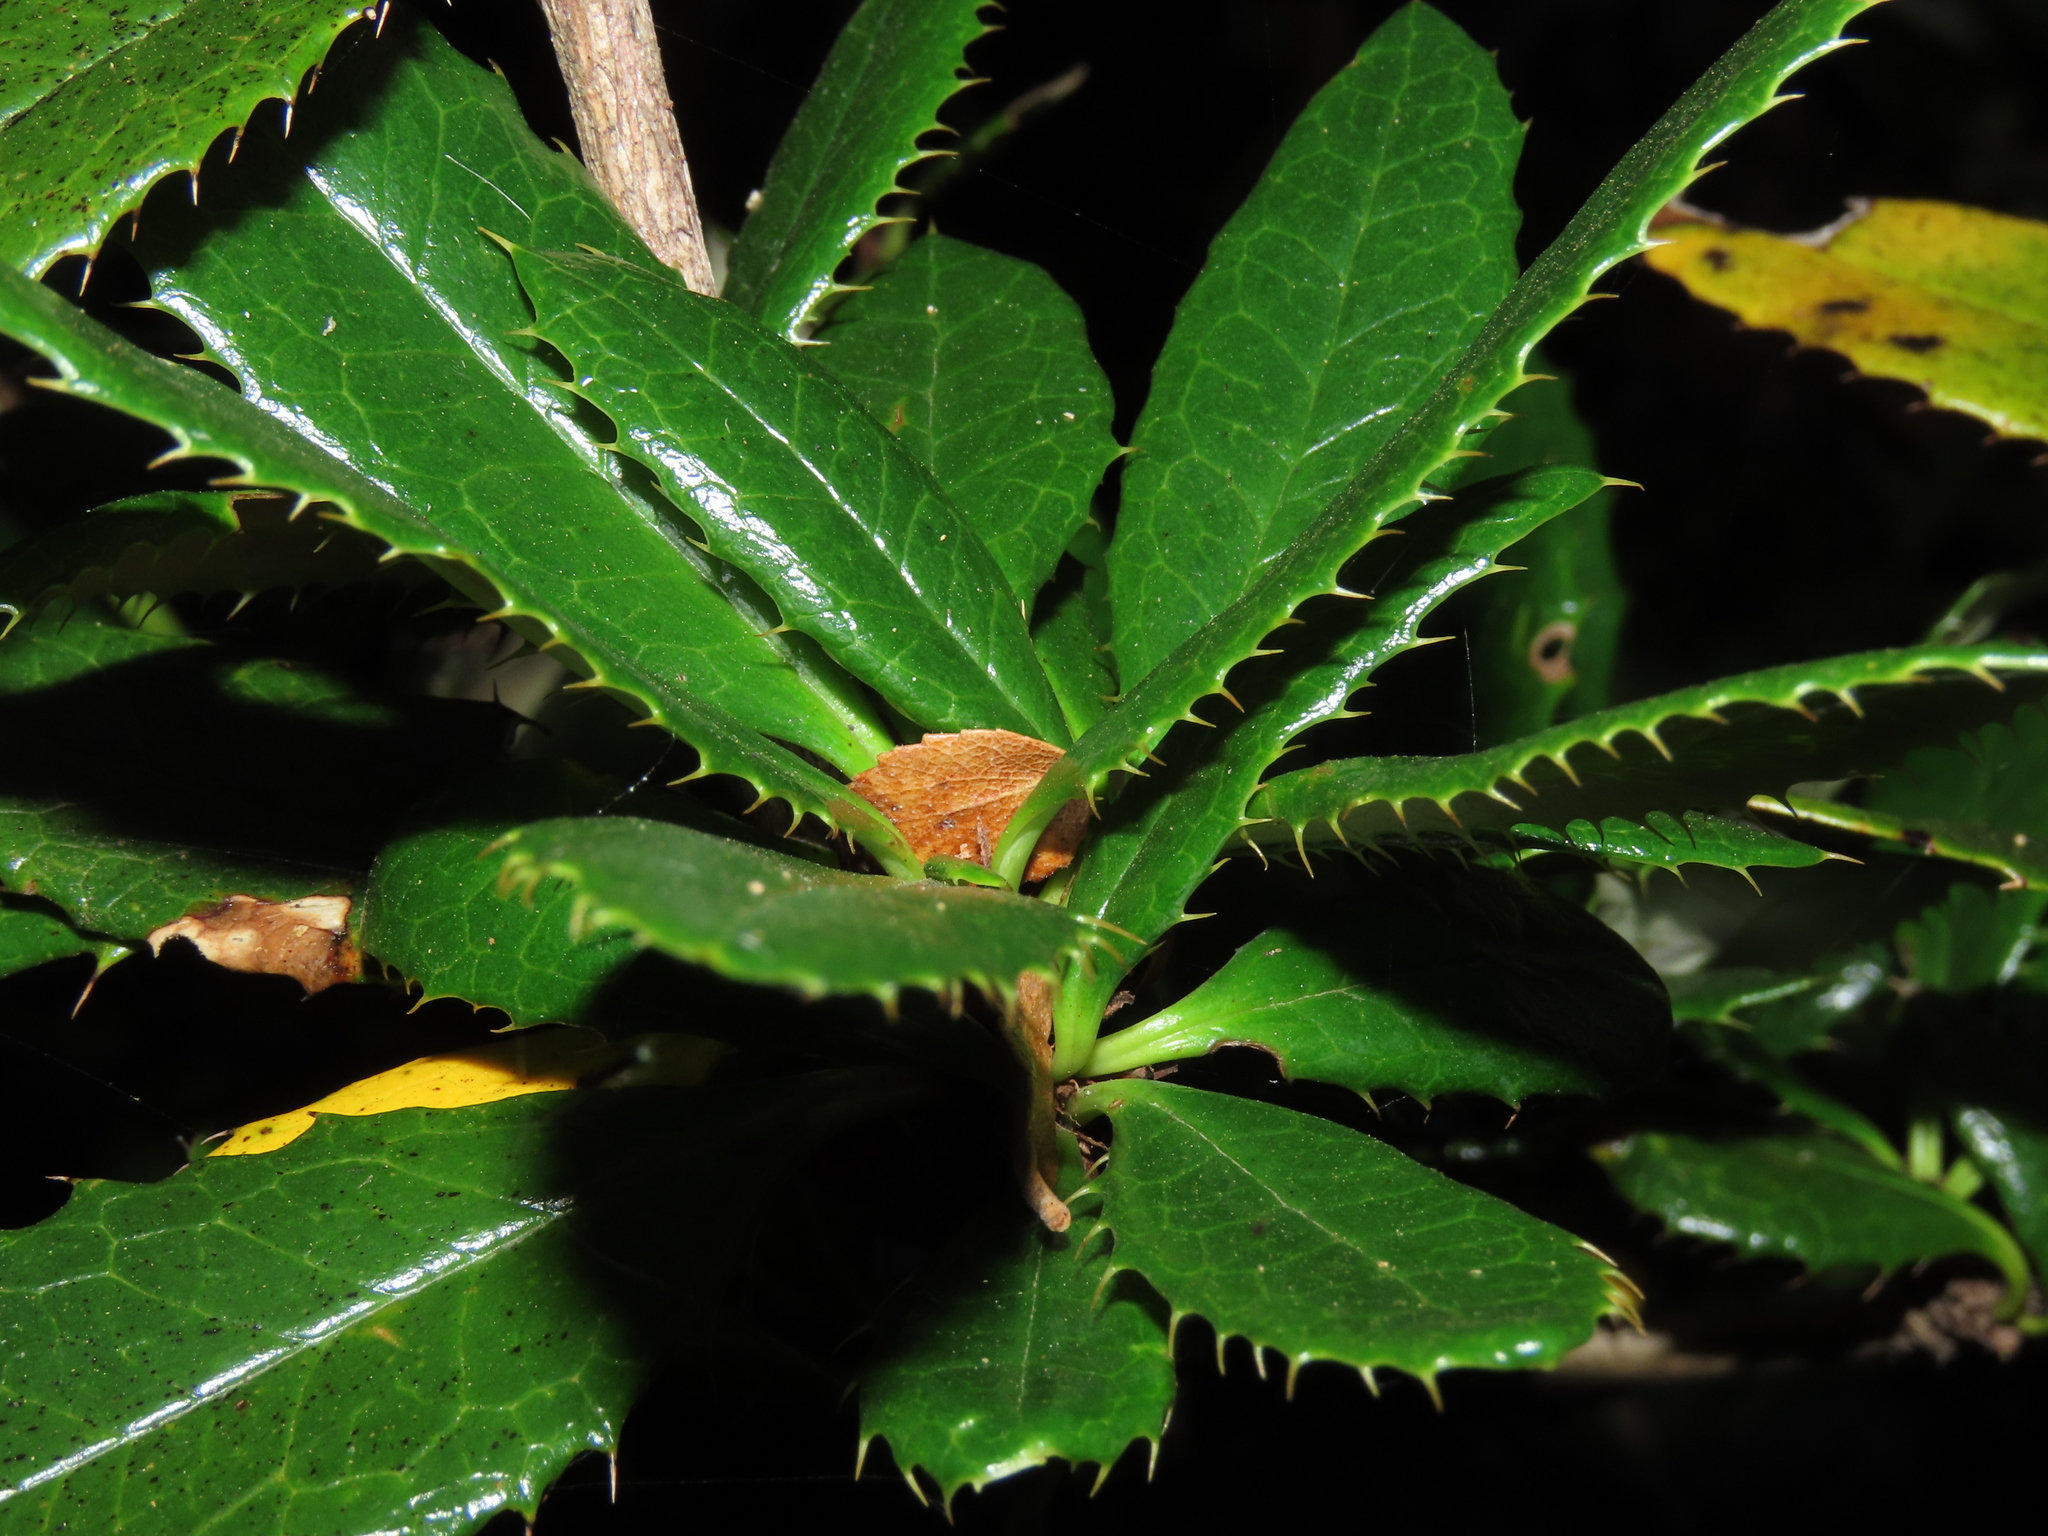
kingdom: Plantae
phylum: Tracheophyta
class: Magnoliopsida
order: Ranunculales
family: Berberidaceae
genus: Berberis
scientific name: Berberis pseudoilicifolia
